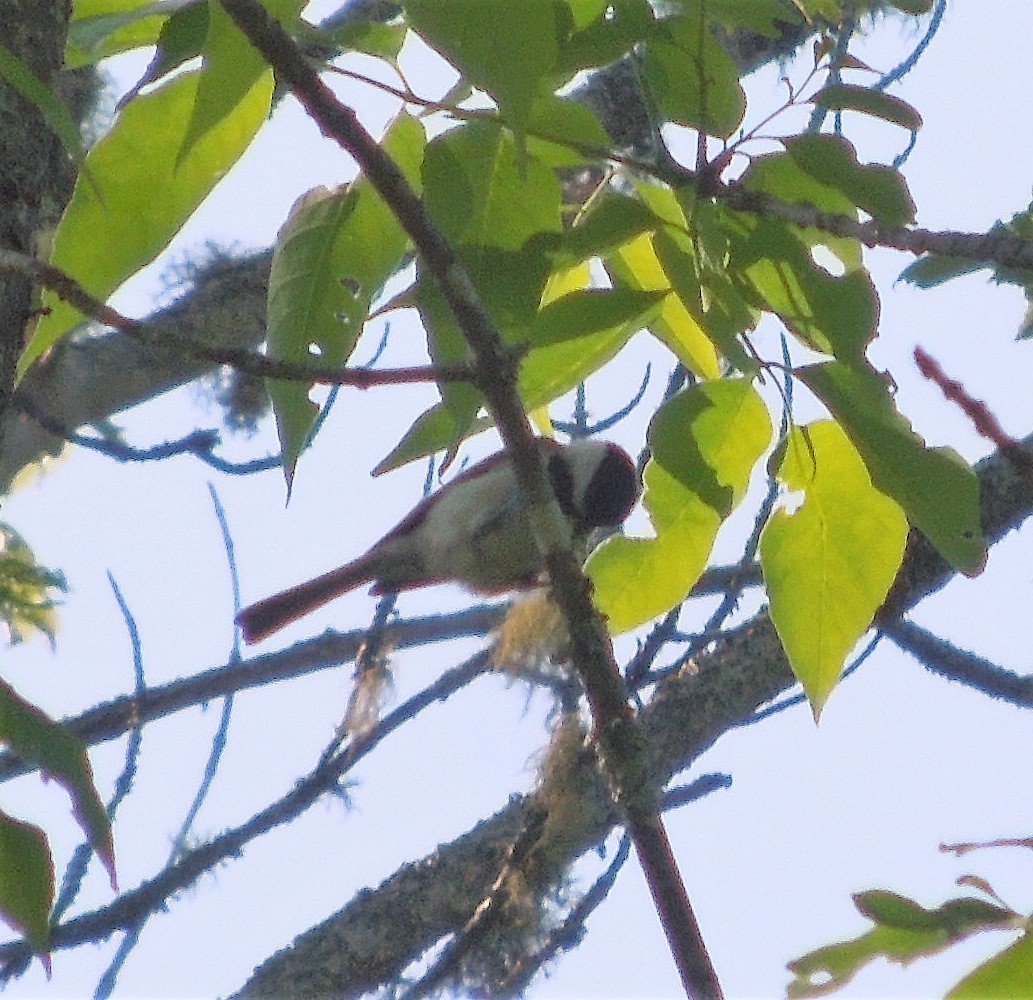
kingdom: Animalia
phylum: Chordata
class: Aves
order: Passeriformes
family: Paridae
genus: Poecile
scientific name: Poecile atricapillus
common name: Black-capped chickadee
